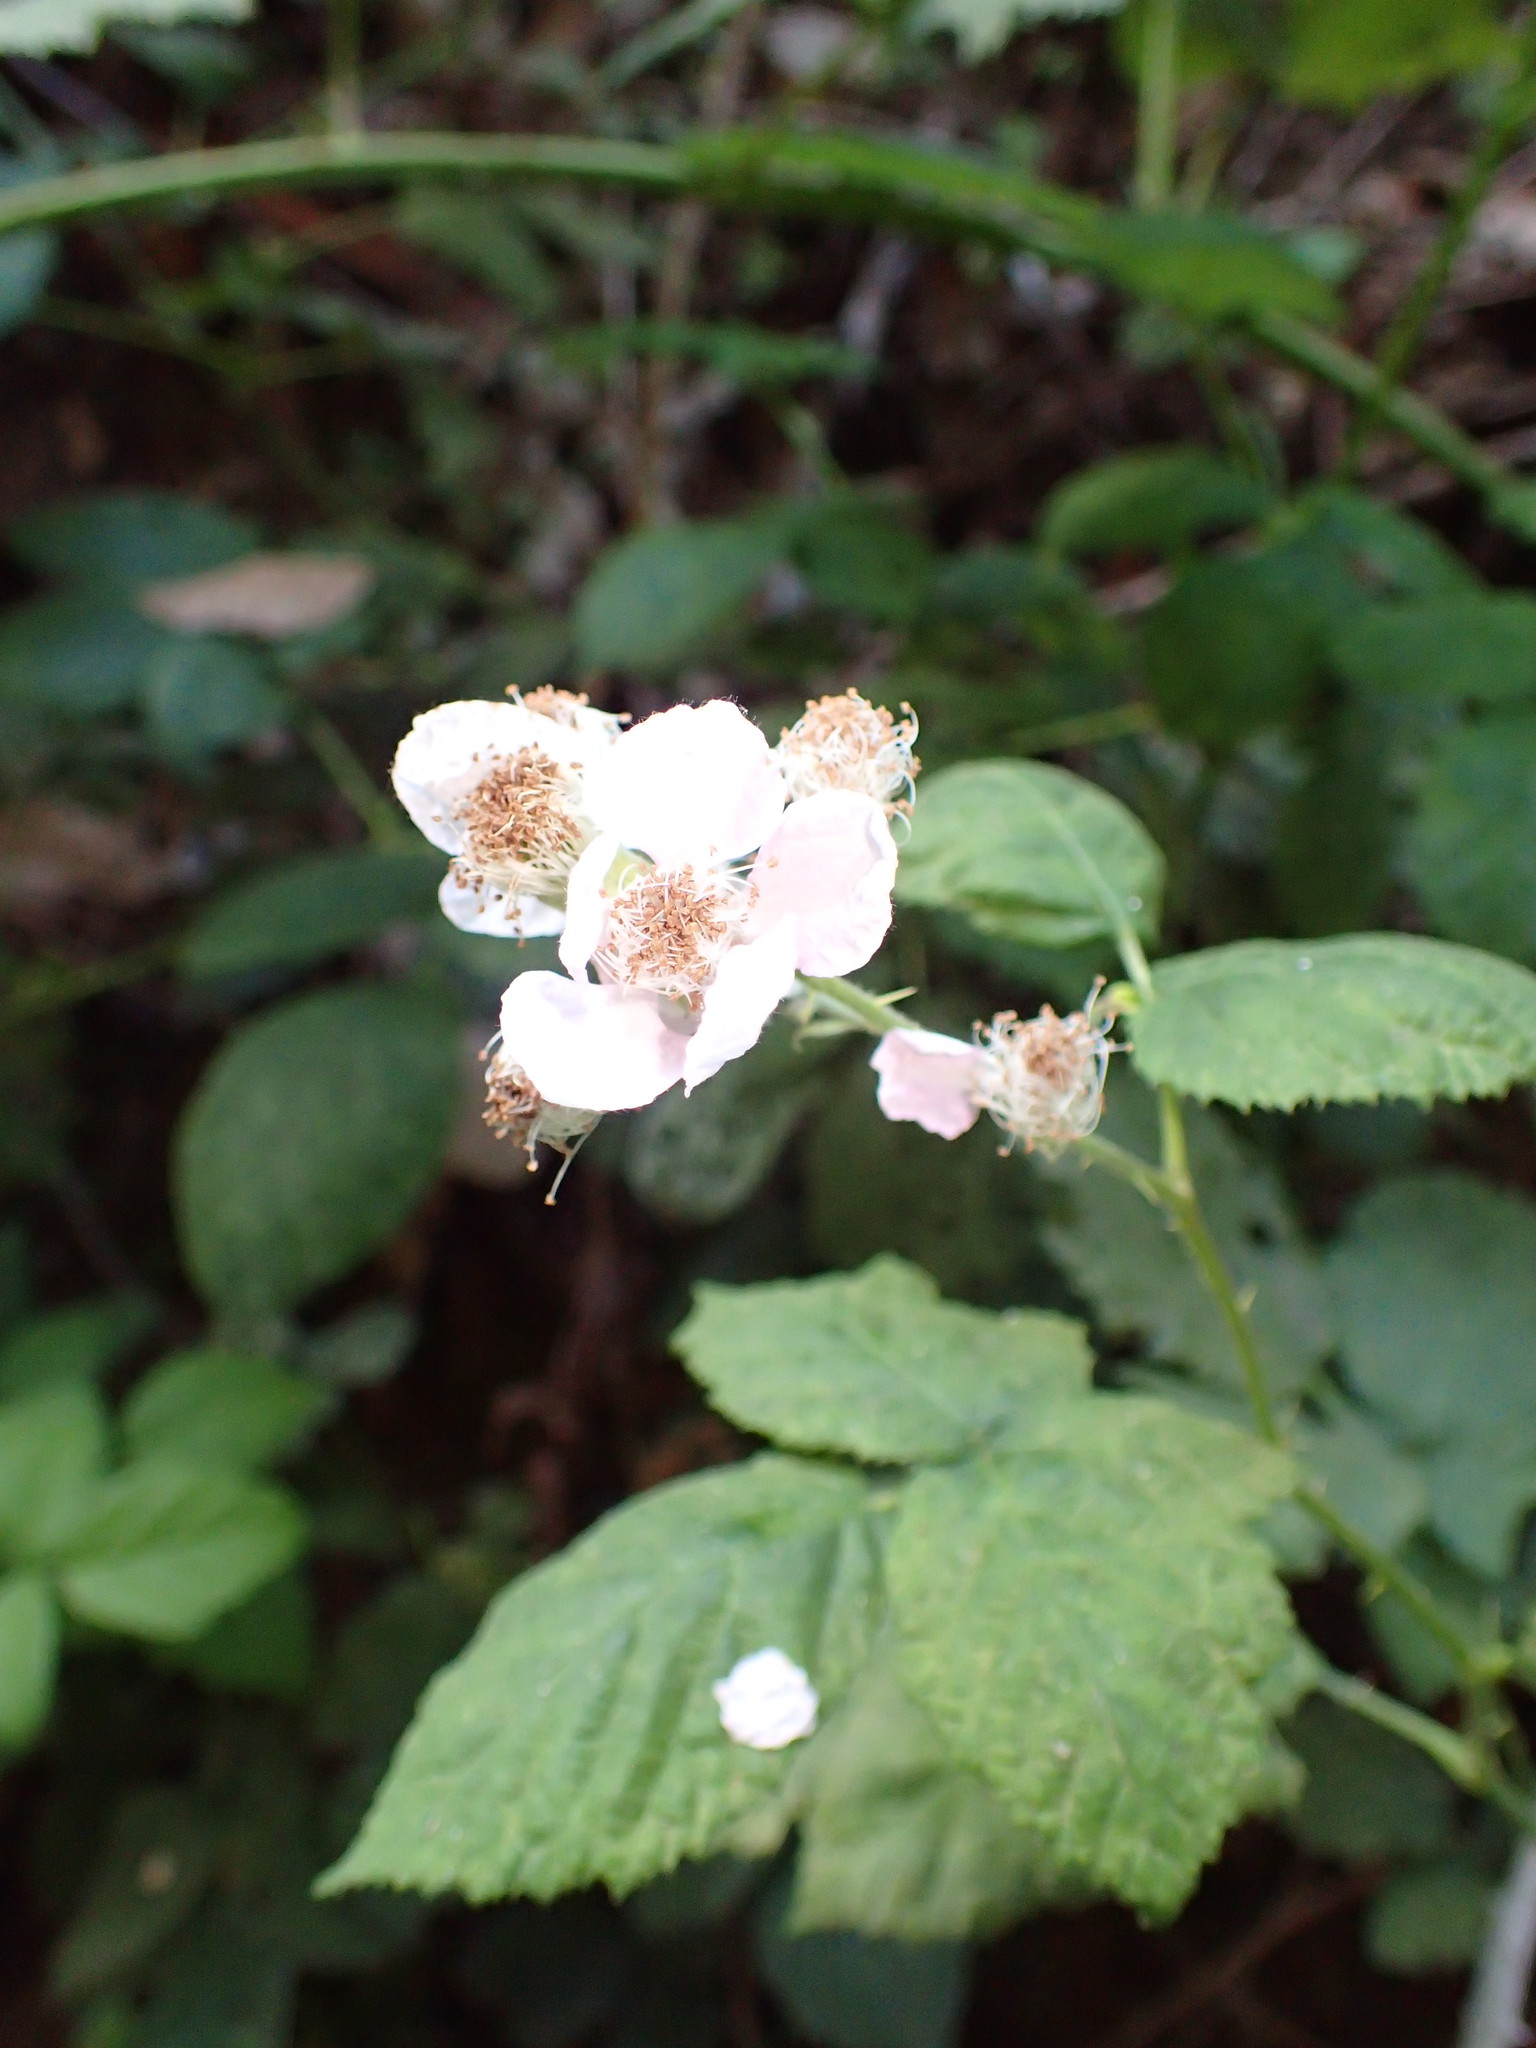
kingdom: Plantae
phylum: Tracheophyta
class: Magnoliopsida
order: Rosales
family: Rosaceae
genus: Rubus
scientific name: Rubus armeniacus
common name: Himalayan blackberry
